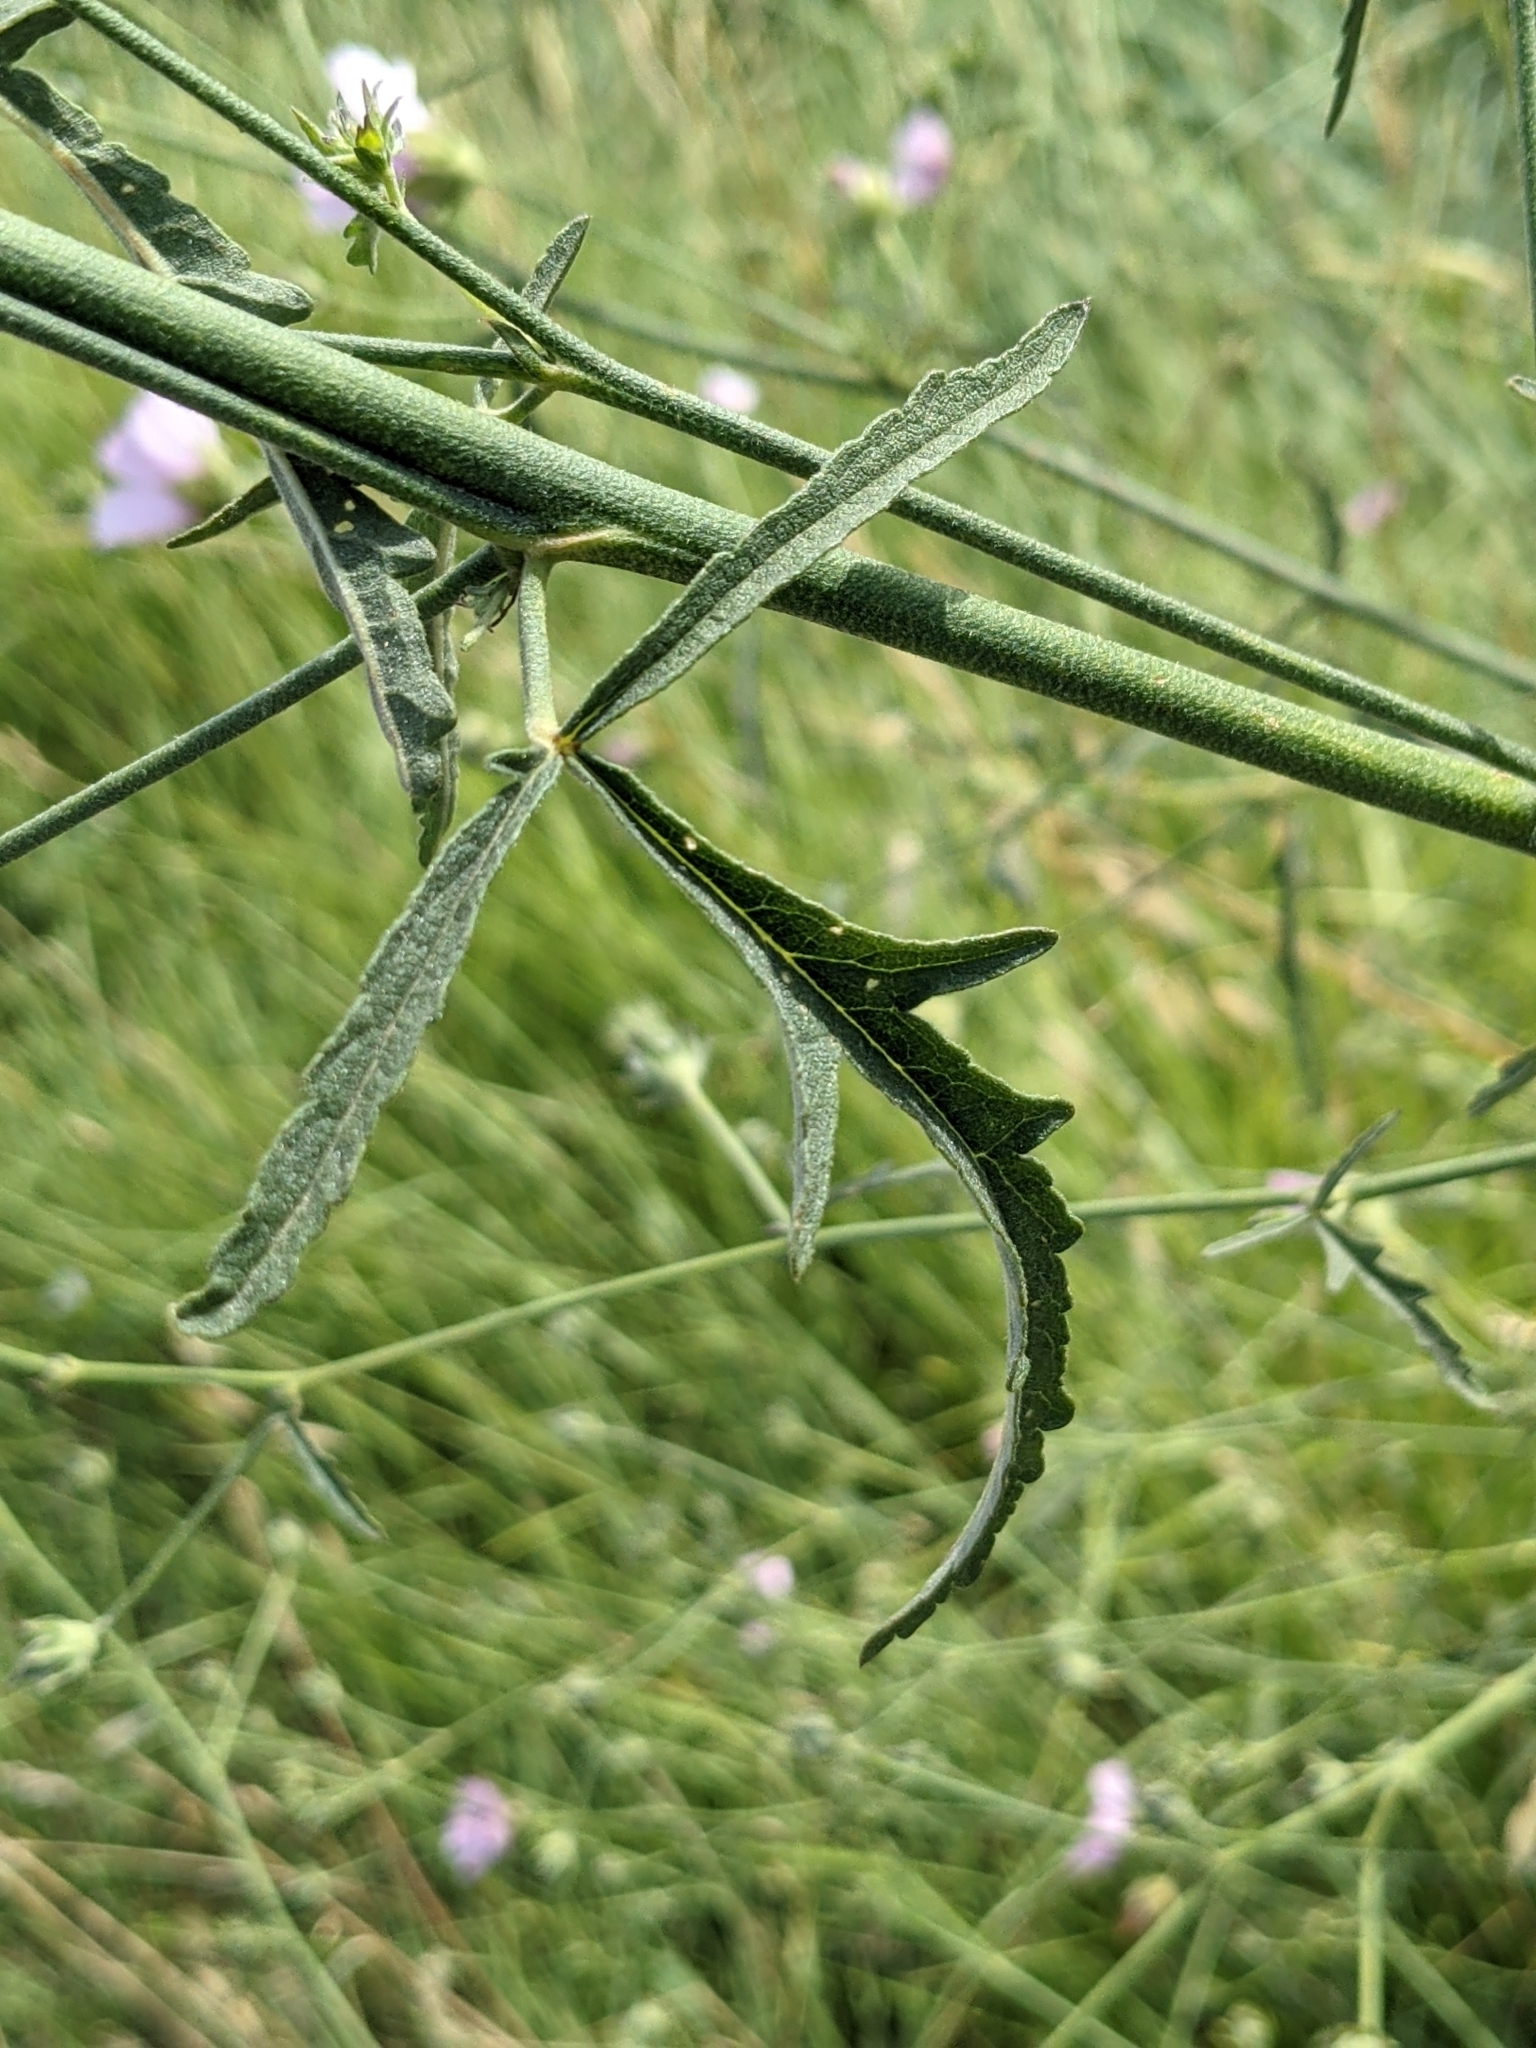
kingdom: Plantae
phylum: Tracheophyta
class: Magnoliopsida
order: Malvales
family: Malvaceae
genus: Althaea
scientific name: Althaea cannabina
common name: Palm-leaf marshmallow
